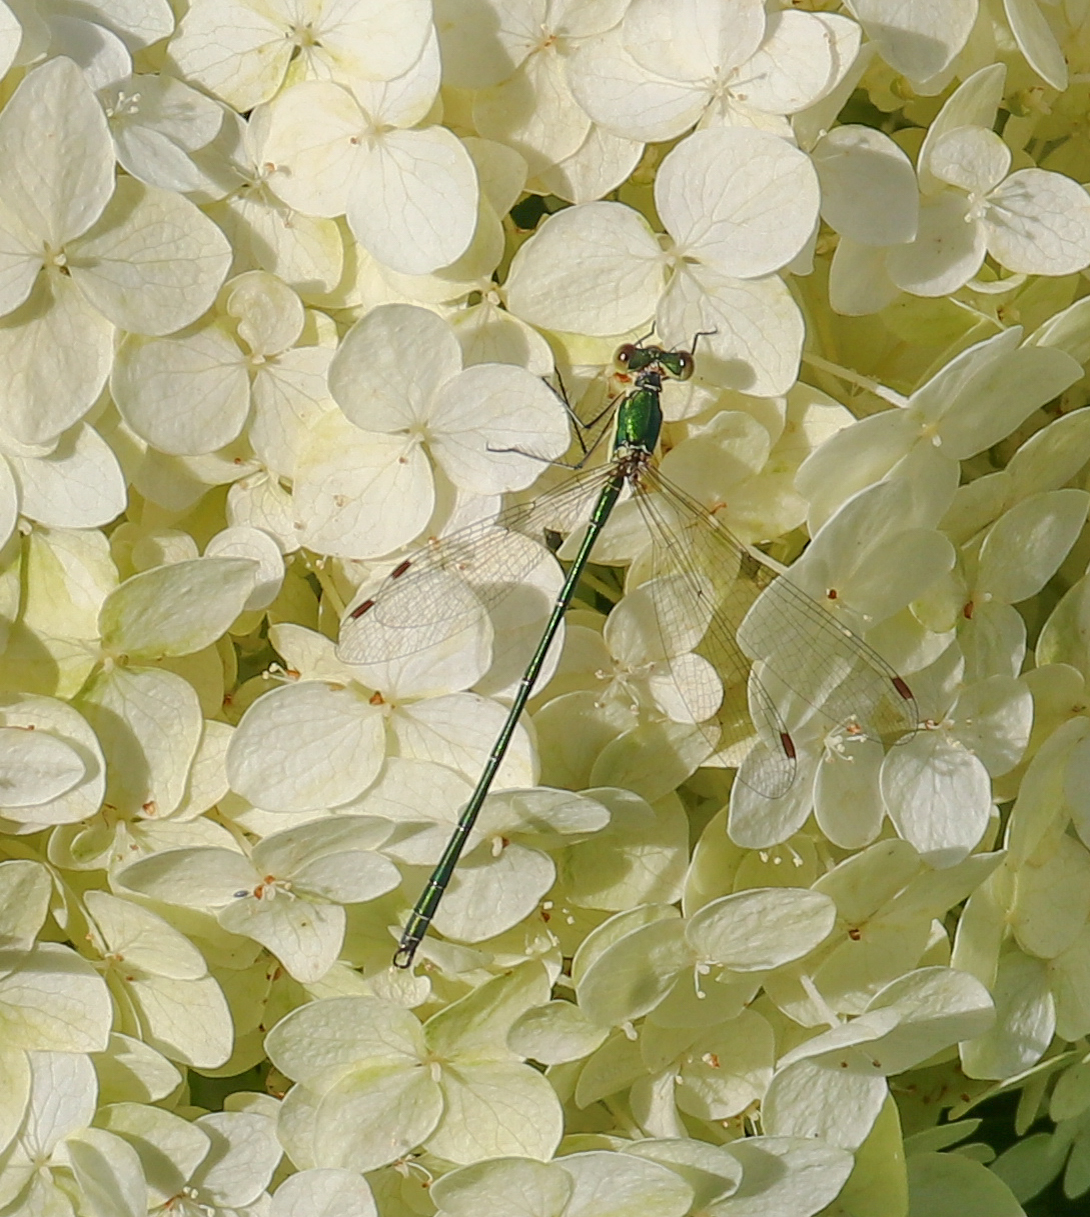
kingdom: Animalia
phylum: Arthropoda
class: Insecta
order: Odonata
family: Lestidae
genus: Lestes
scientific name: Lestes virens
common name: Small emerald spreadwing
